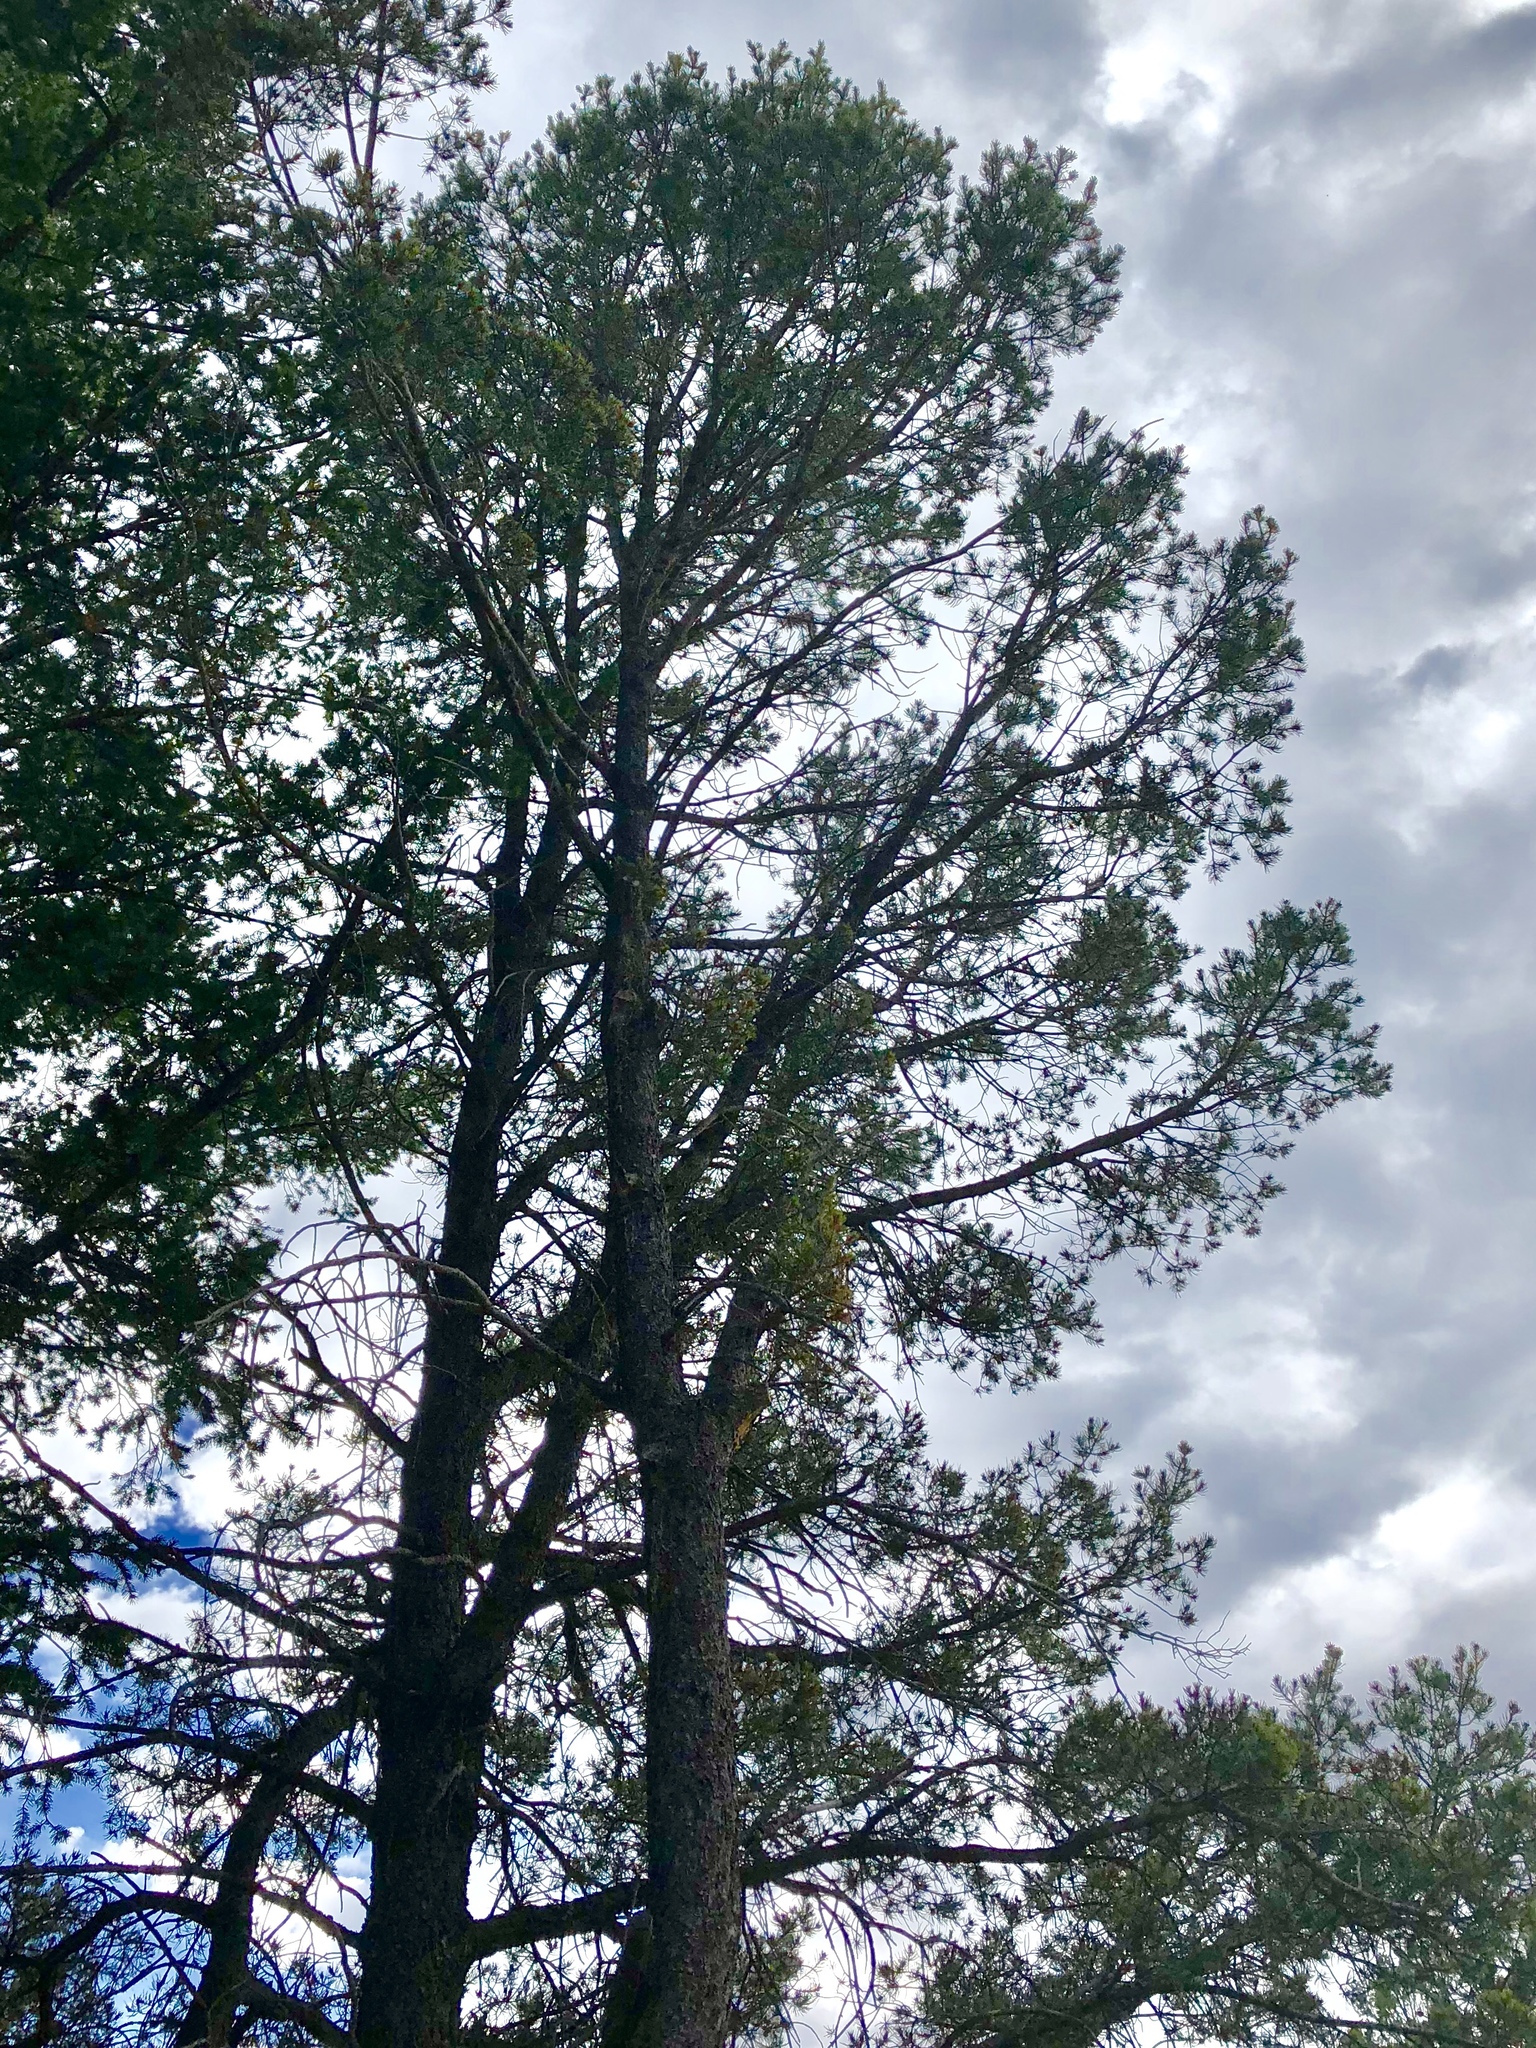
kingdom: Plantae
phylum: Tracheophyta
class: Pinopsida
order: Pinales
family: Pinaceae
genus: Pinus
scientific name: Pinus edulis
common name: Colorado pinyon
